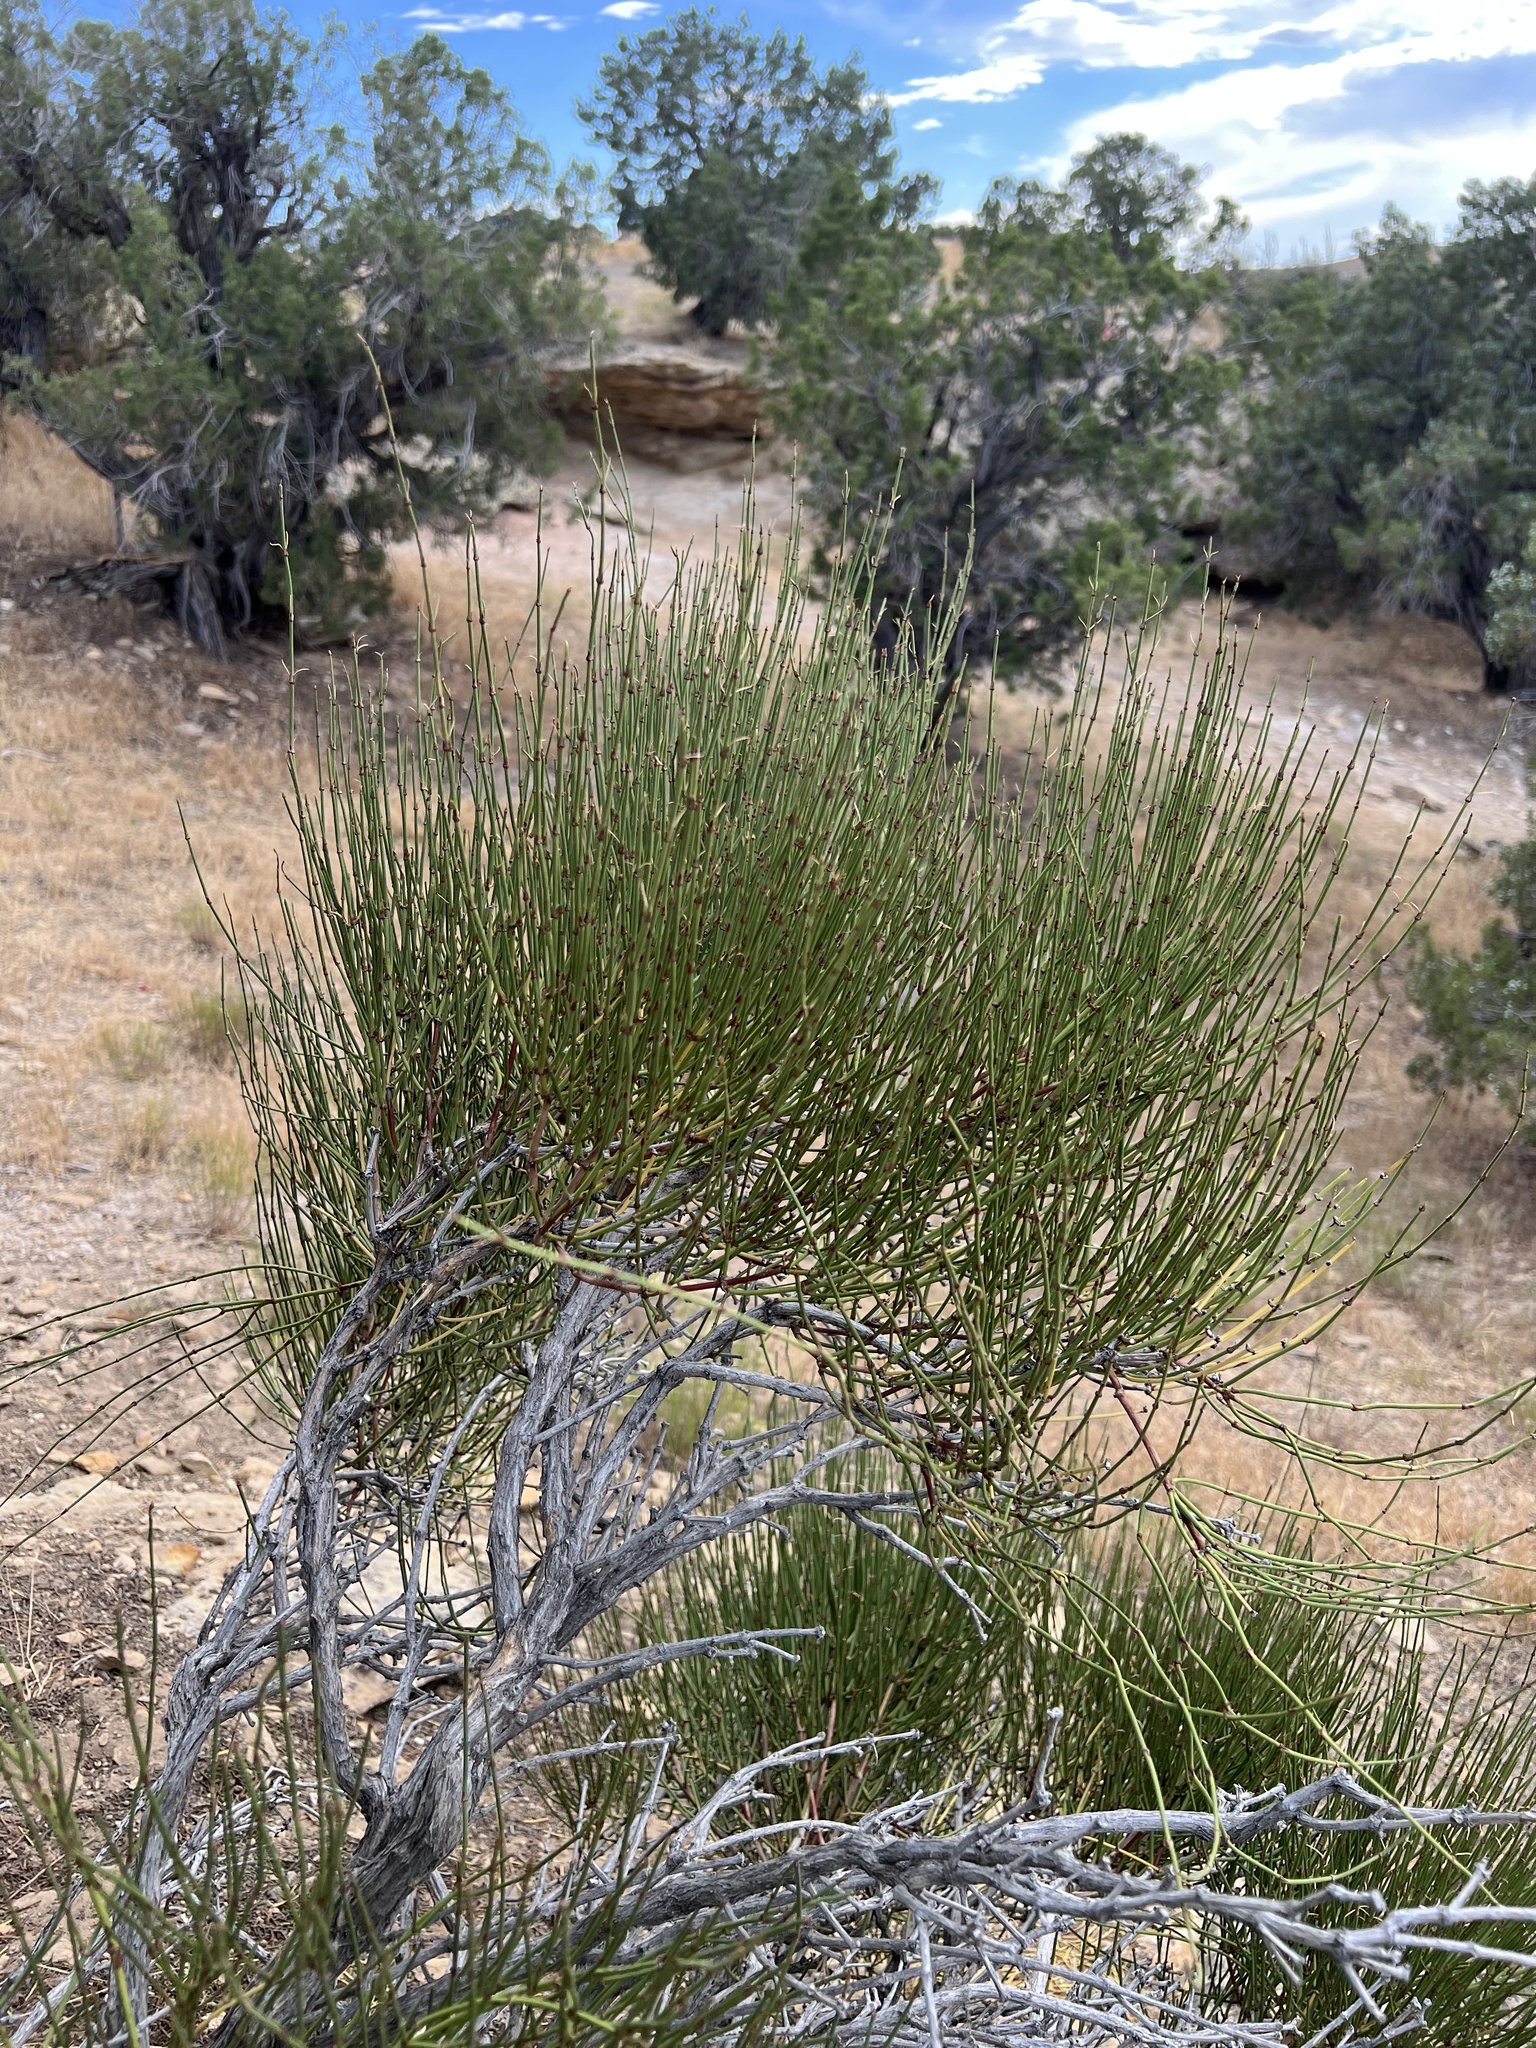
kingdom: Plantae
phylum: Tracheophyta
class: Gnetopsida
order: Ephedrales
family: Ephedraceae
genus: Ephedra
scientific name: Ephedra viridis
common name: Green ephedra
